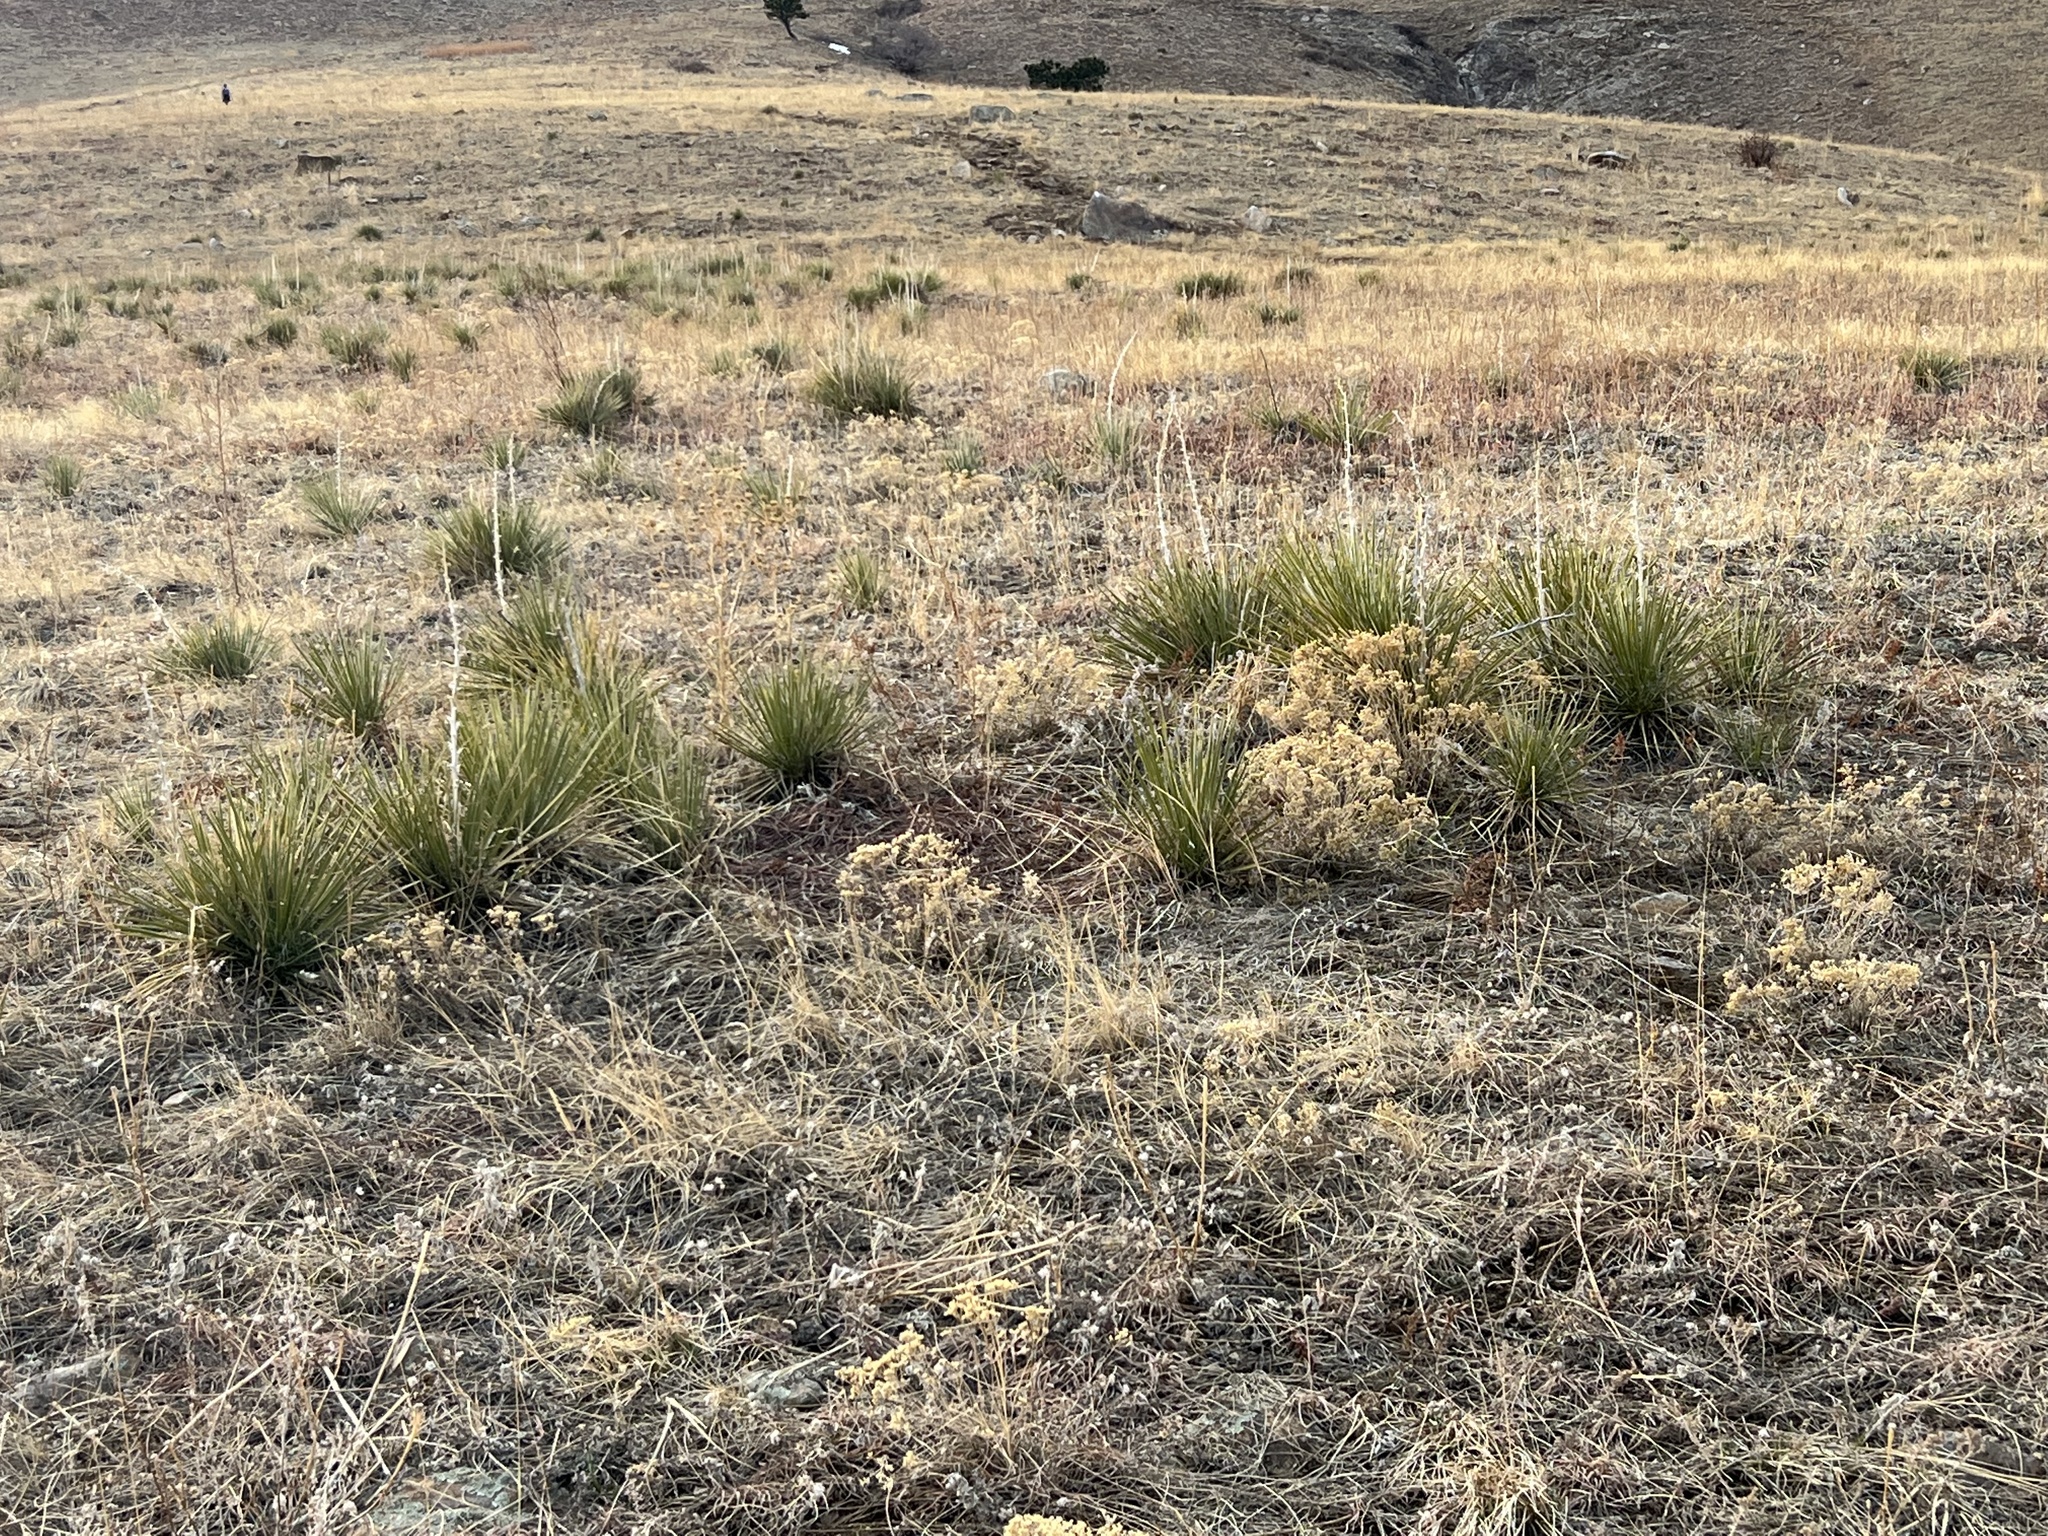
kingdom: Plantae
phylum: Tracheophyta
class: Liliopsida
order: Asparagales
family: Asparagaceae
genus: Yucca
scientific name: Yucca glauca
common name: Great plains yucca
